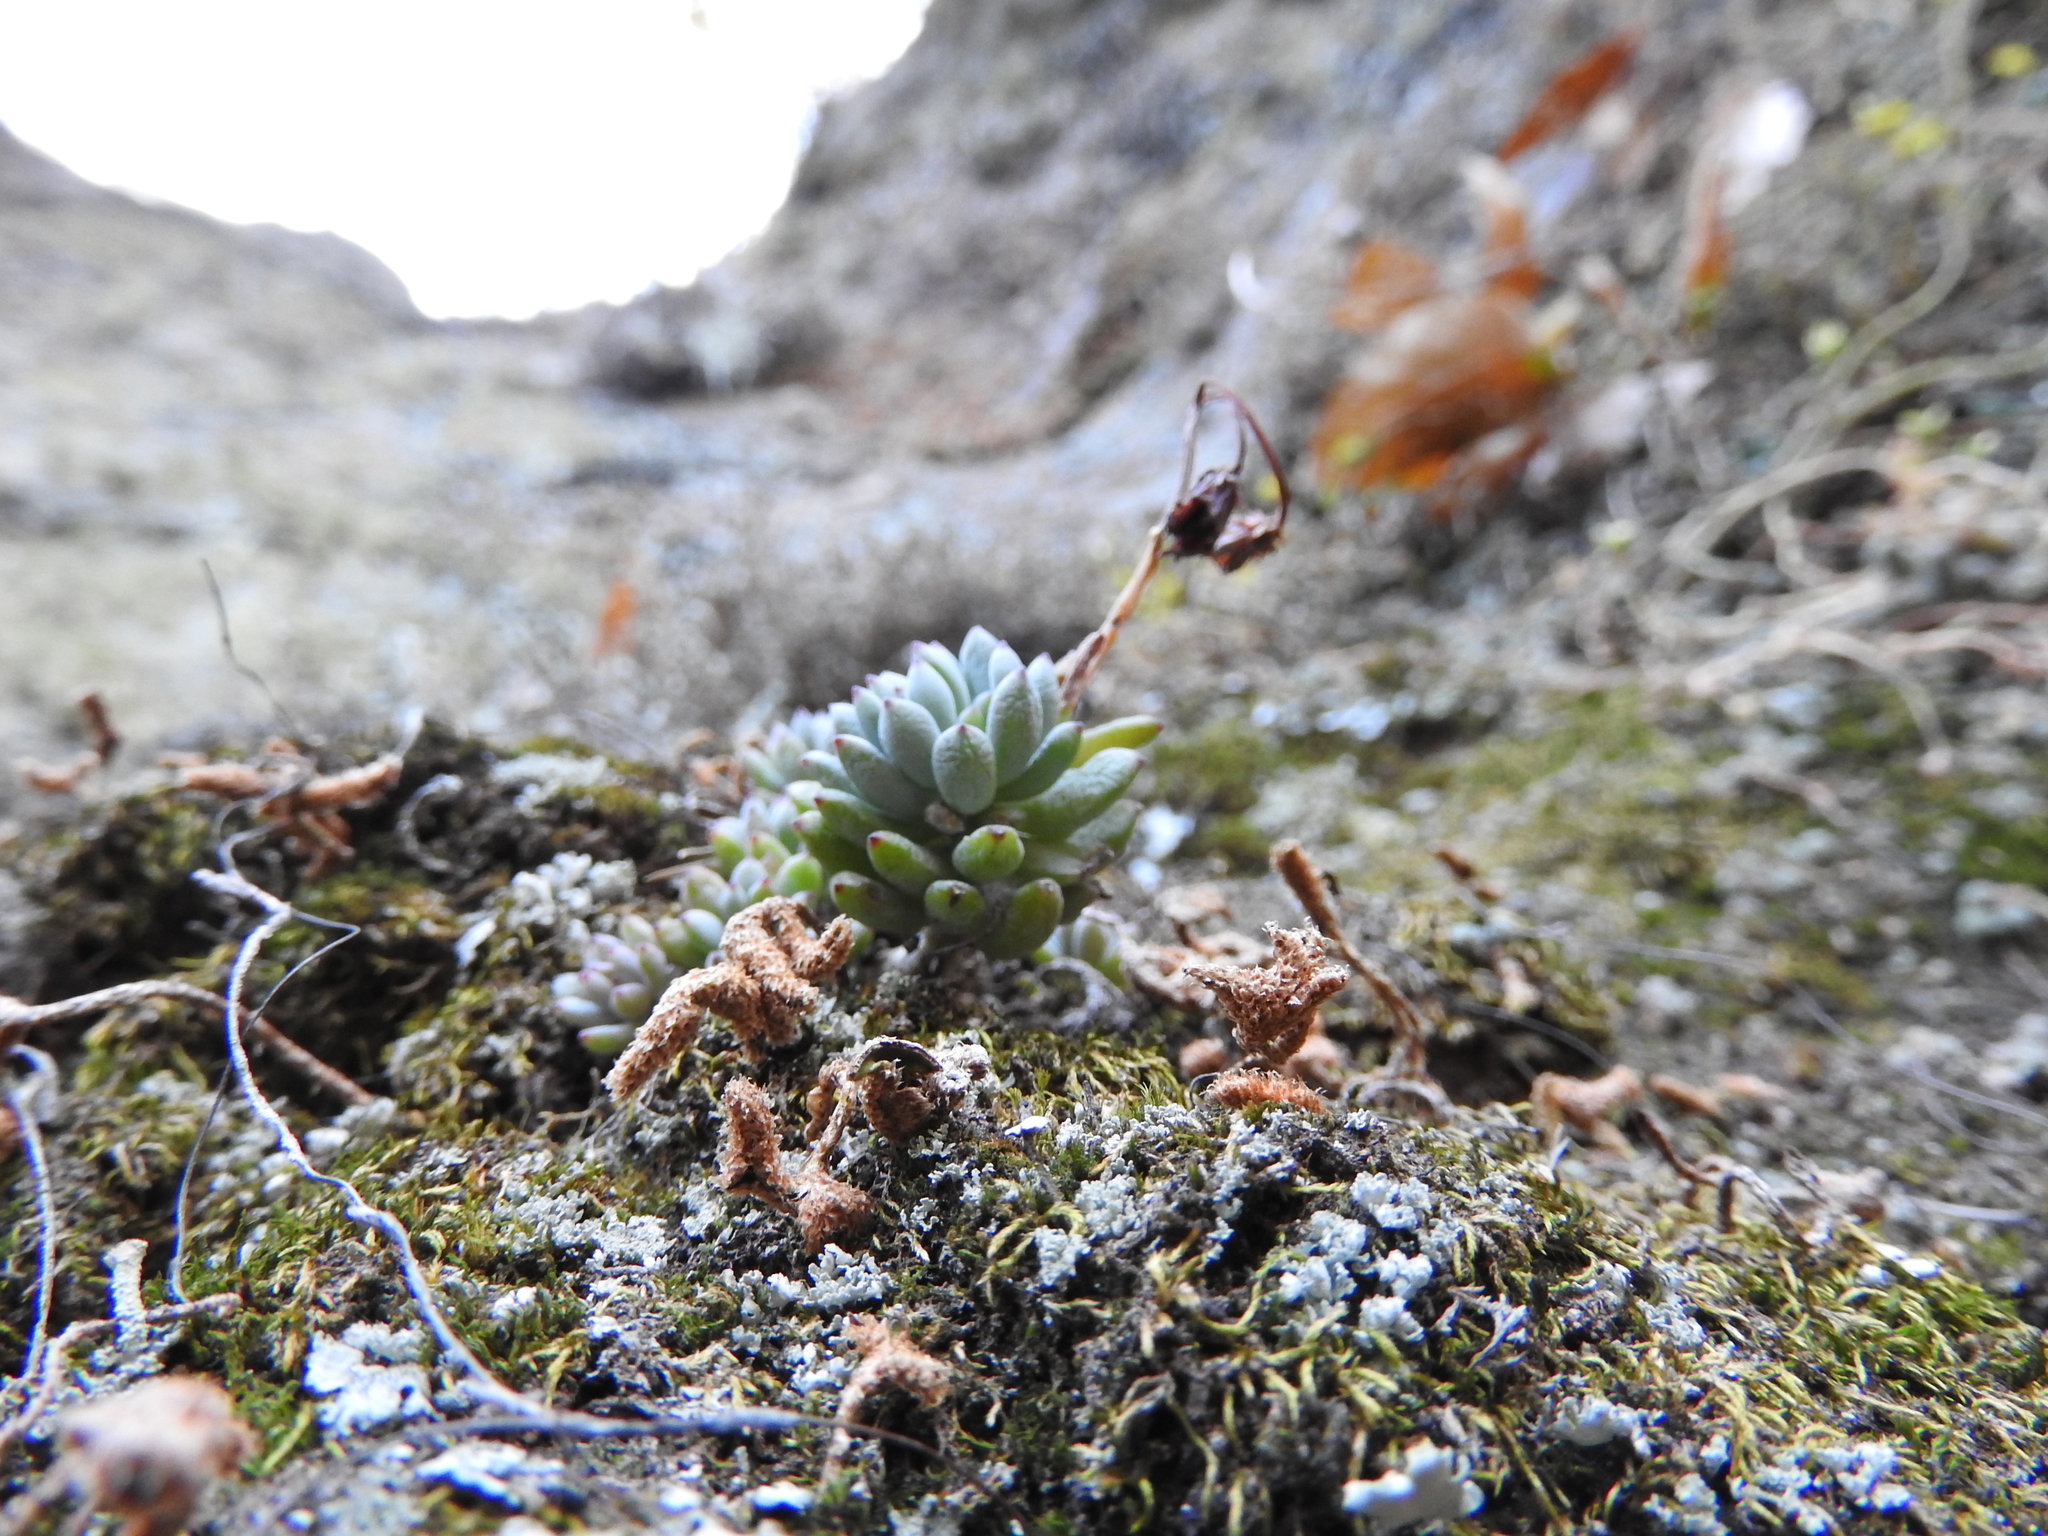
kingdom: Plantae
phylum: Tracheophyta
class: Magnoliopsida
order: Saxifragales
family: Crassulaceae
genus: Graptopetalum
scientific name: Graptopetalum pachyphyllum
